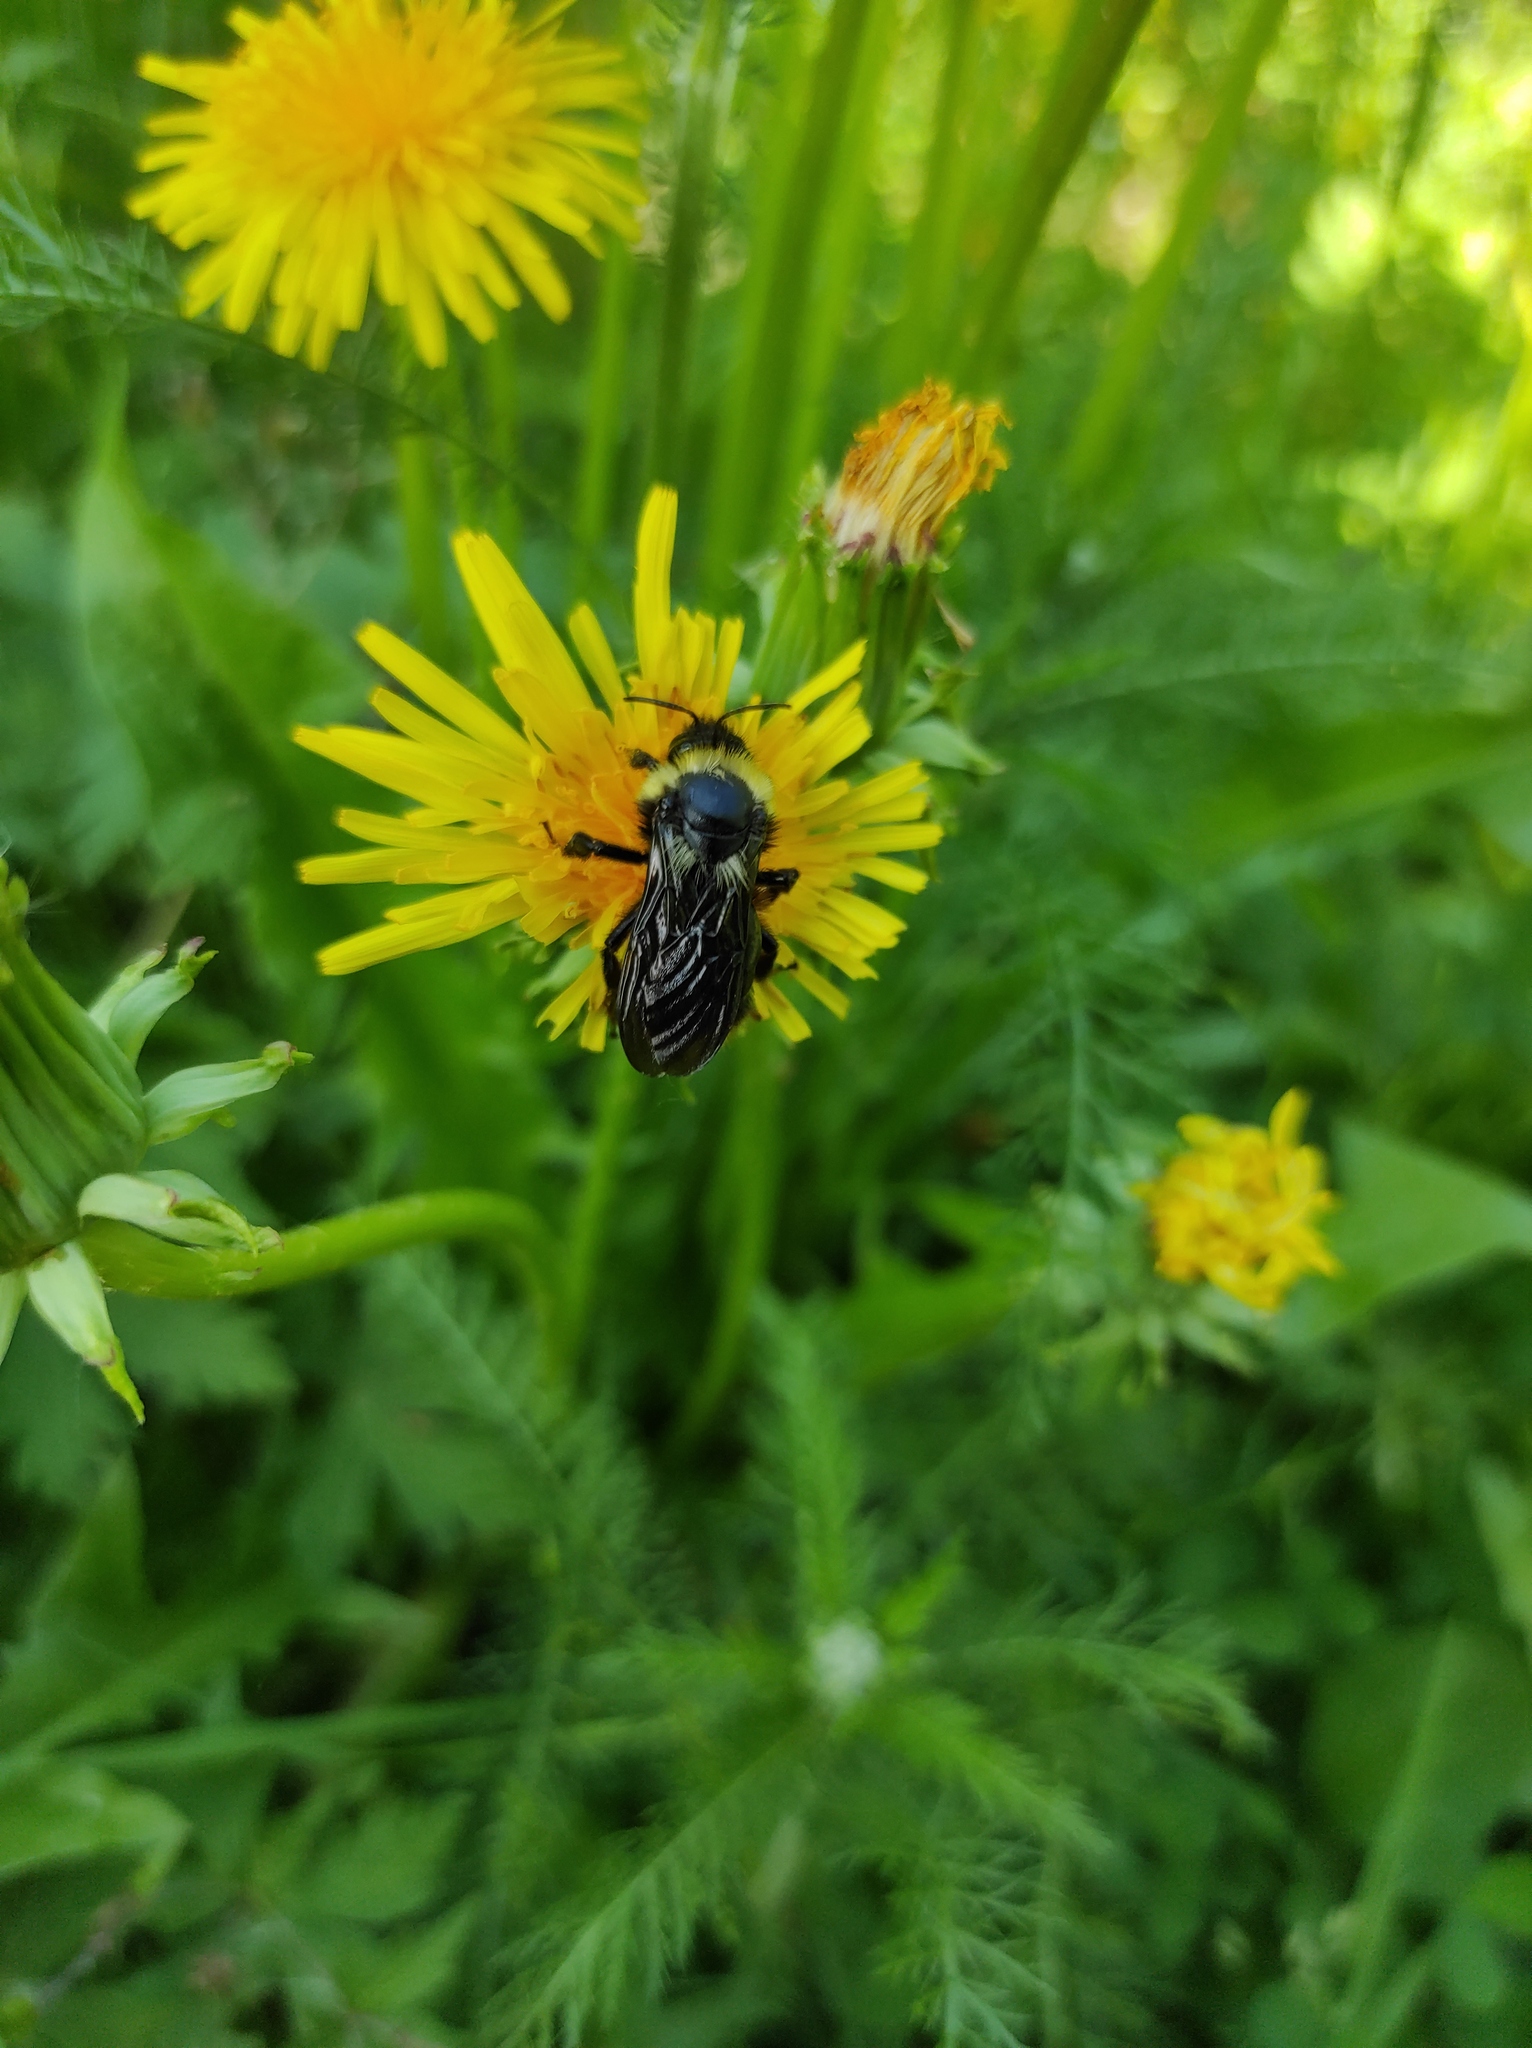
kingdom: Animalia
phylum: Arthropoda
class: Insecta
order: Hymenoptera
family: Apidae
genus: Bombus
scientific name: Bombus
